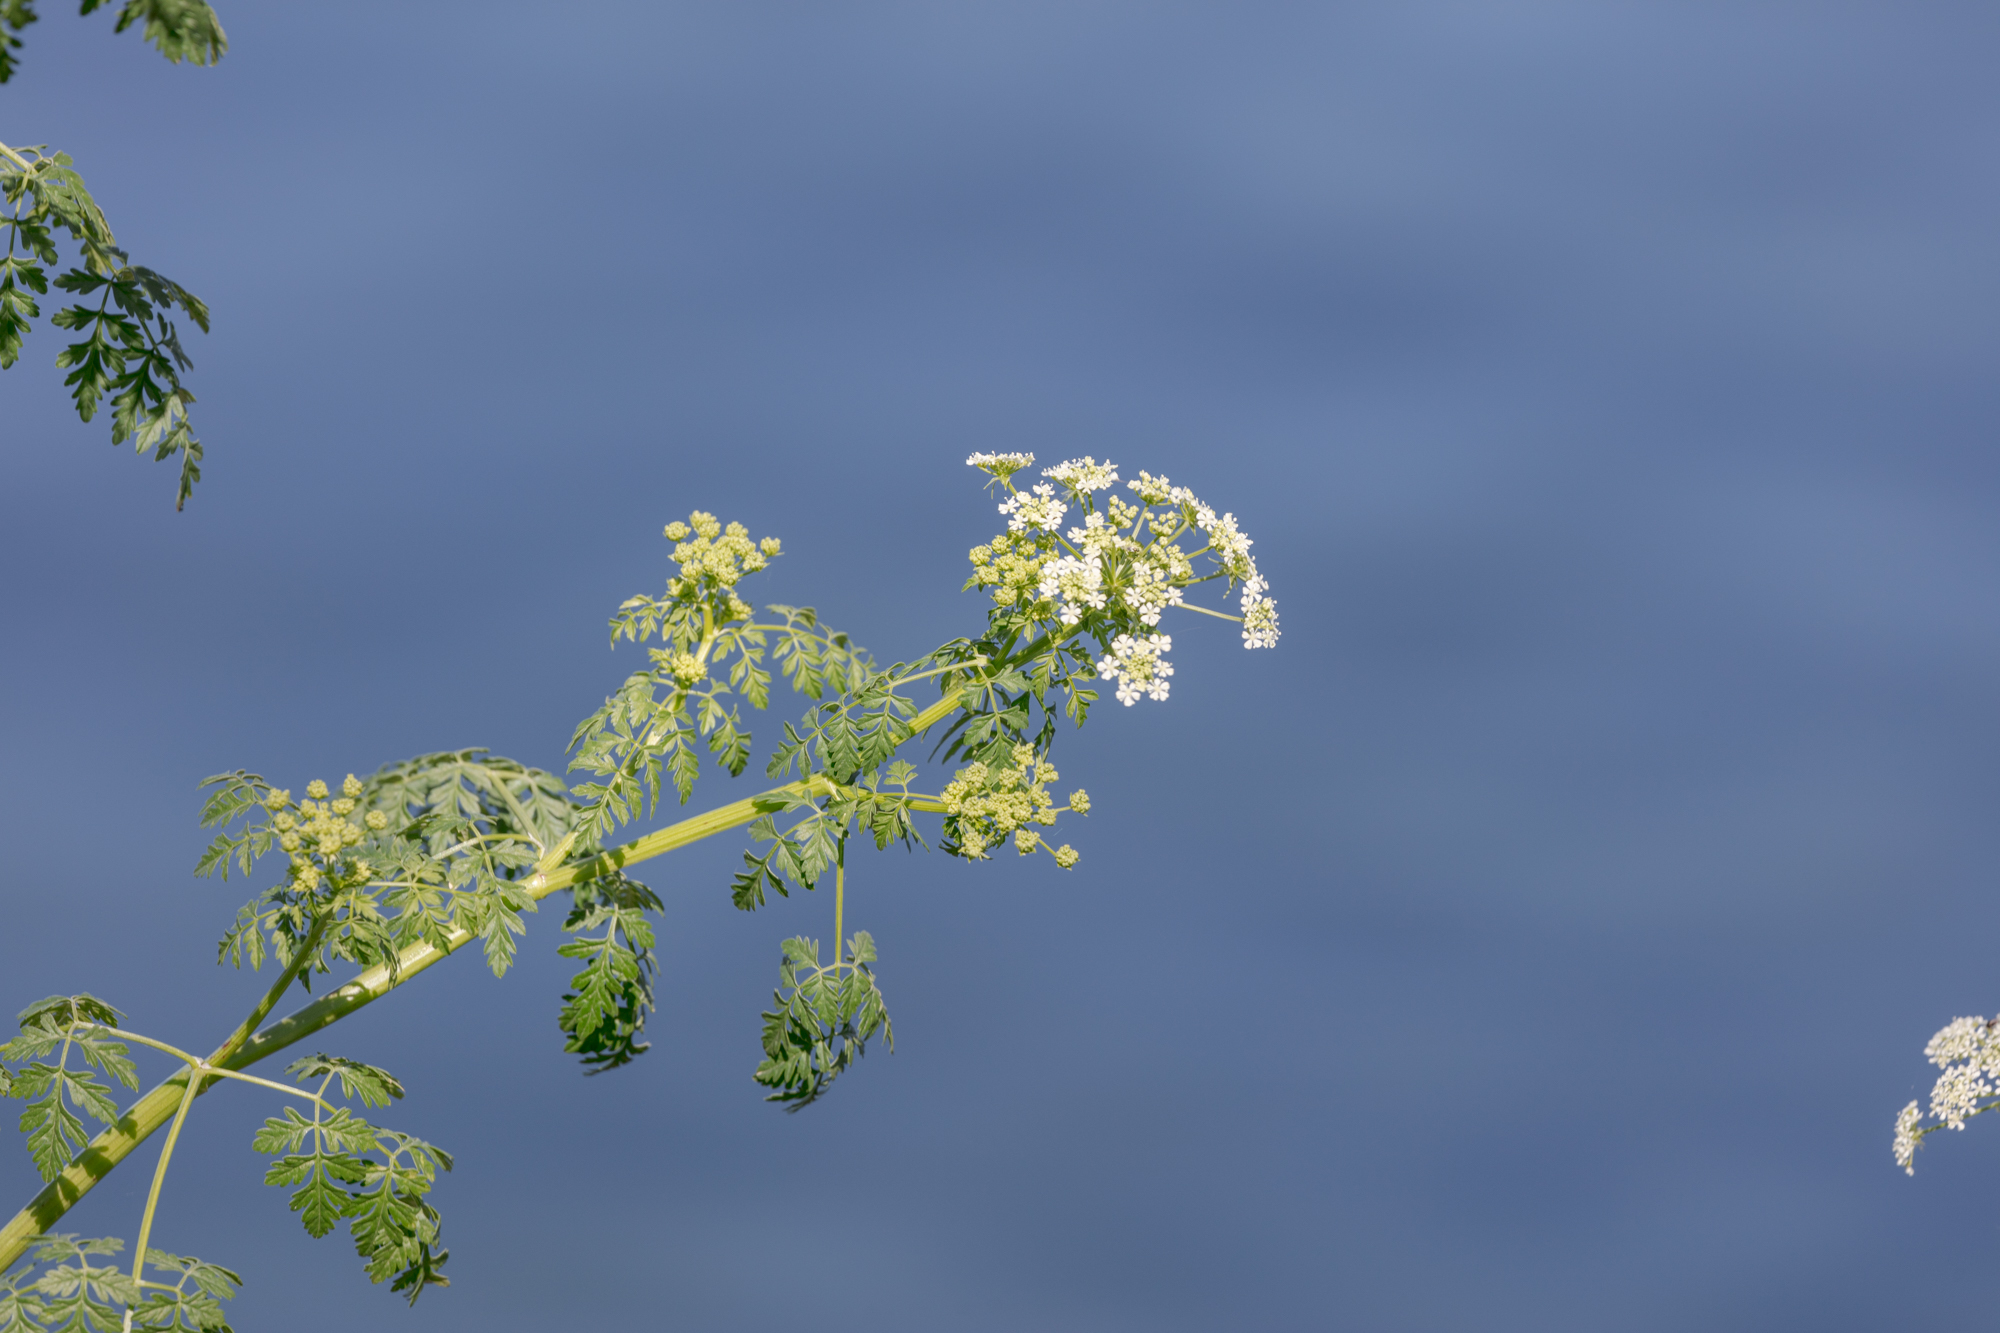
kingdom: Plantae
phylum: Tracheophyta
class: Magnoliopsida
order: Apiales
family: Apiaceae
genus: Conium
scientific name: Conium maculatum
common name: Hemlock
